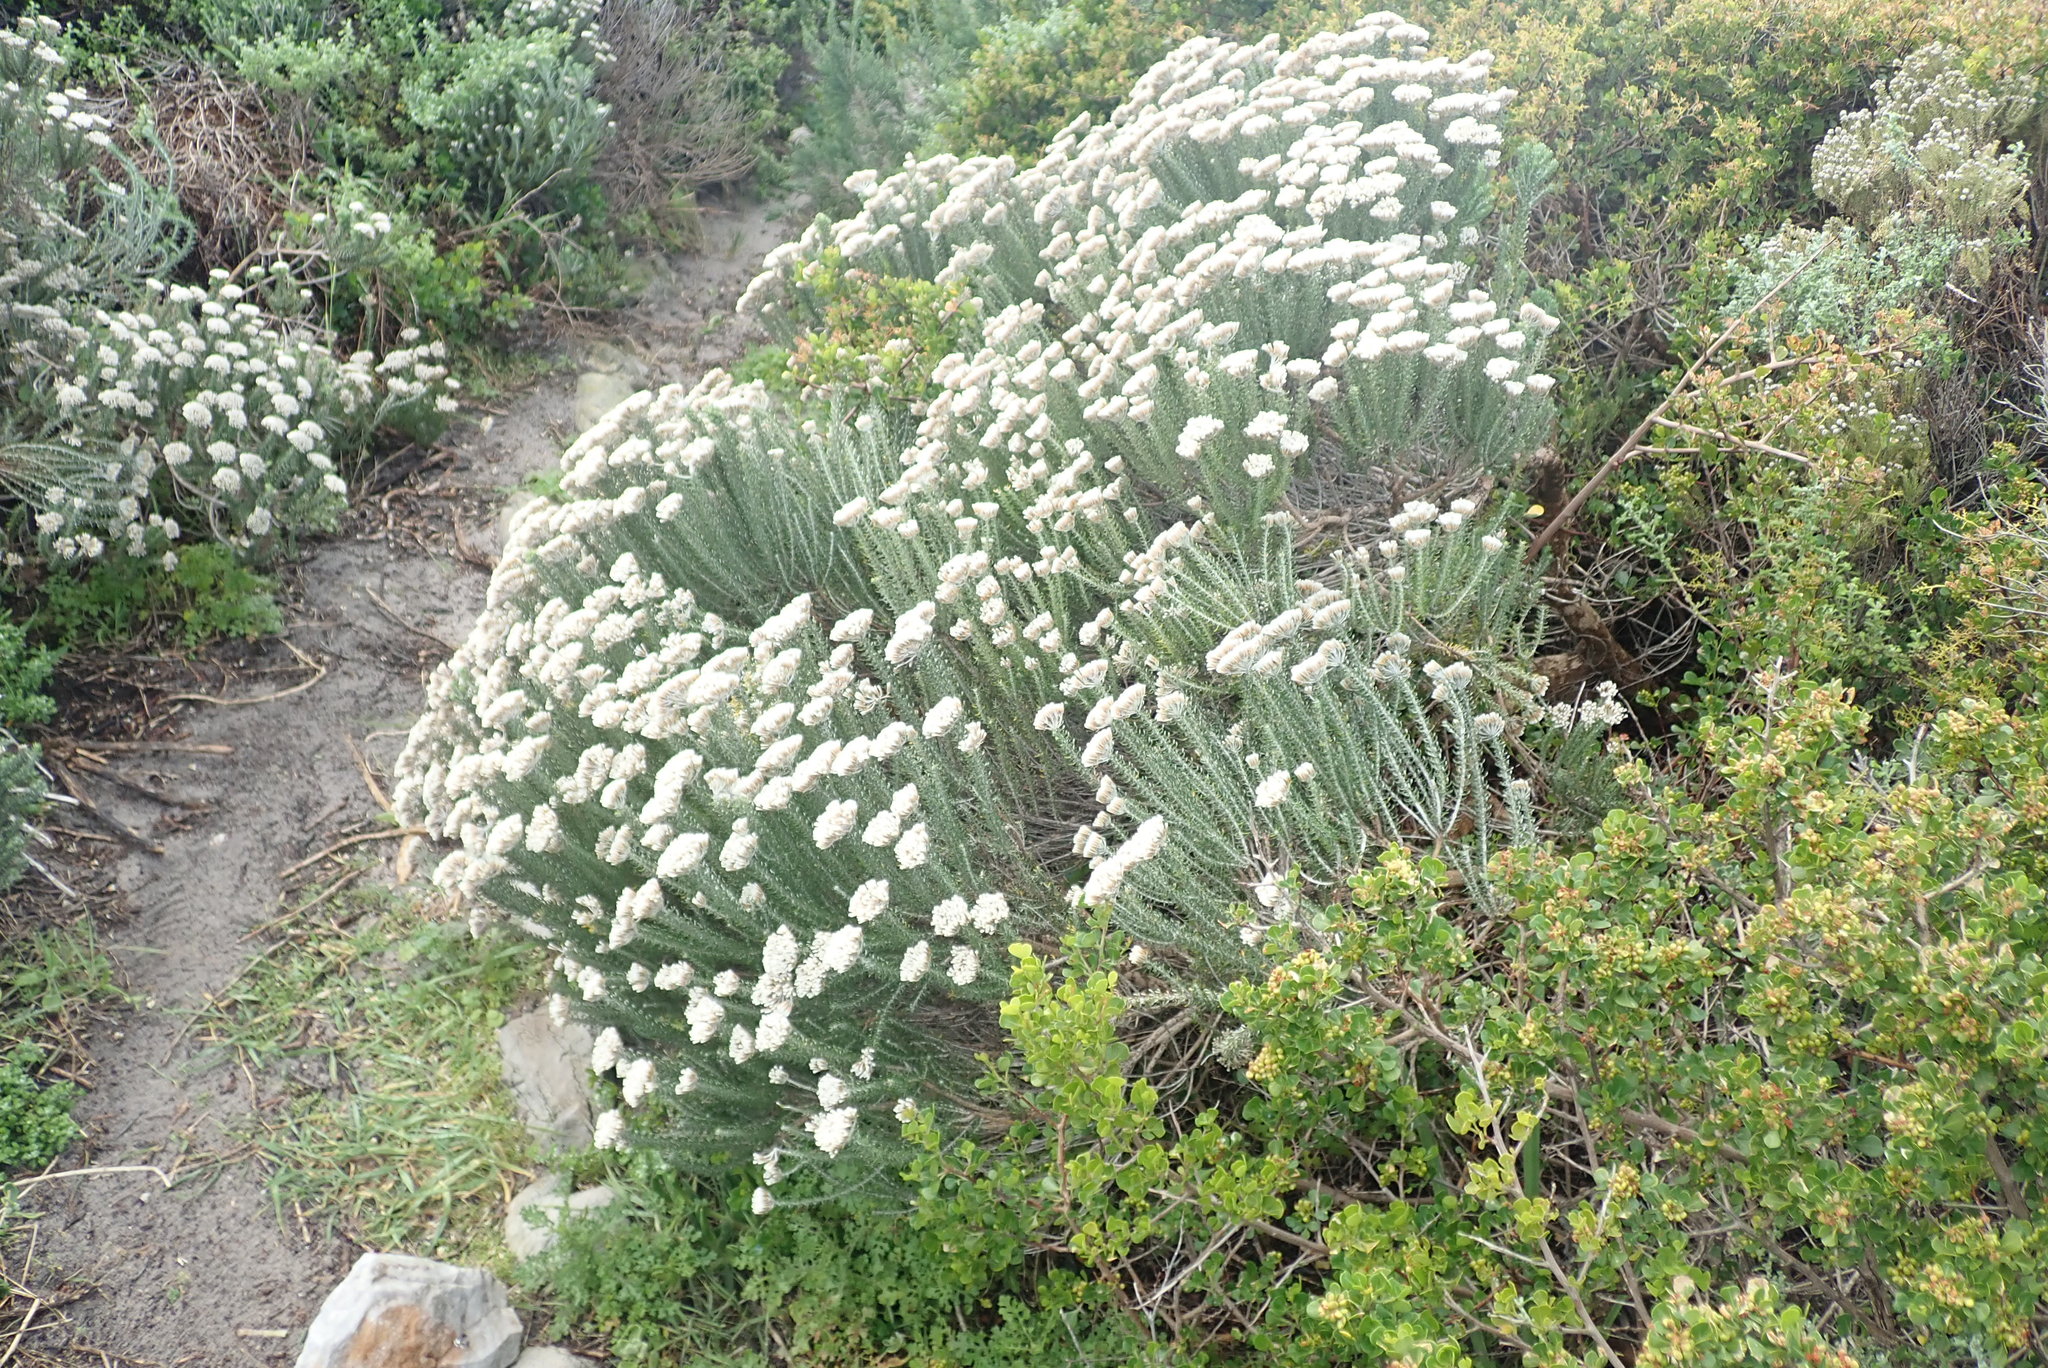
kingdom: Plantae
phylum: Tracheophyta
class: Magnoliopsida
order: Asterales
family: Asteraceae
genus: Metalasia
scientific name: Metalasia muricata
